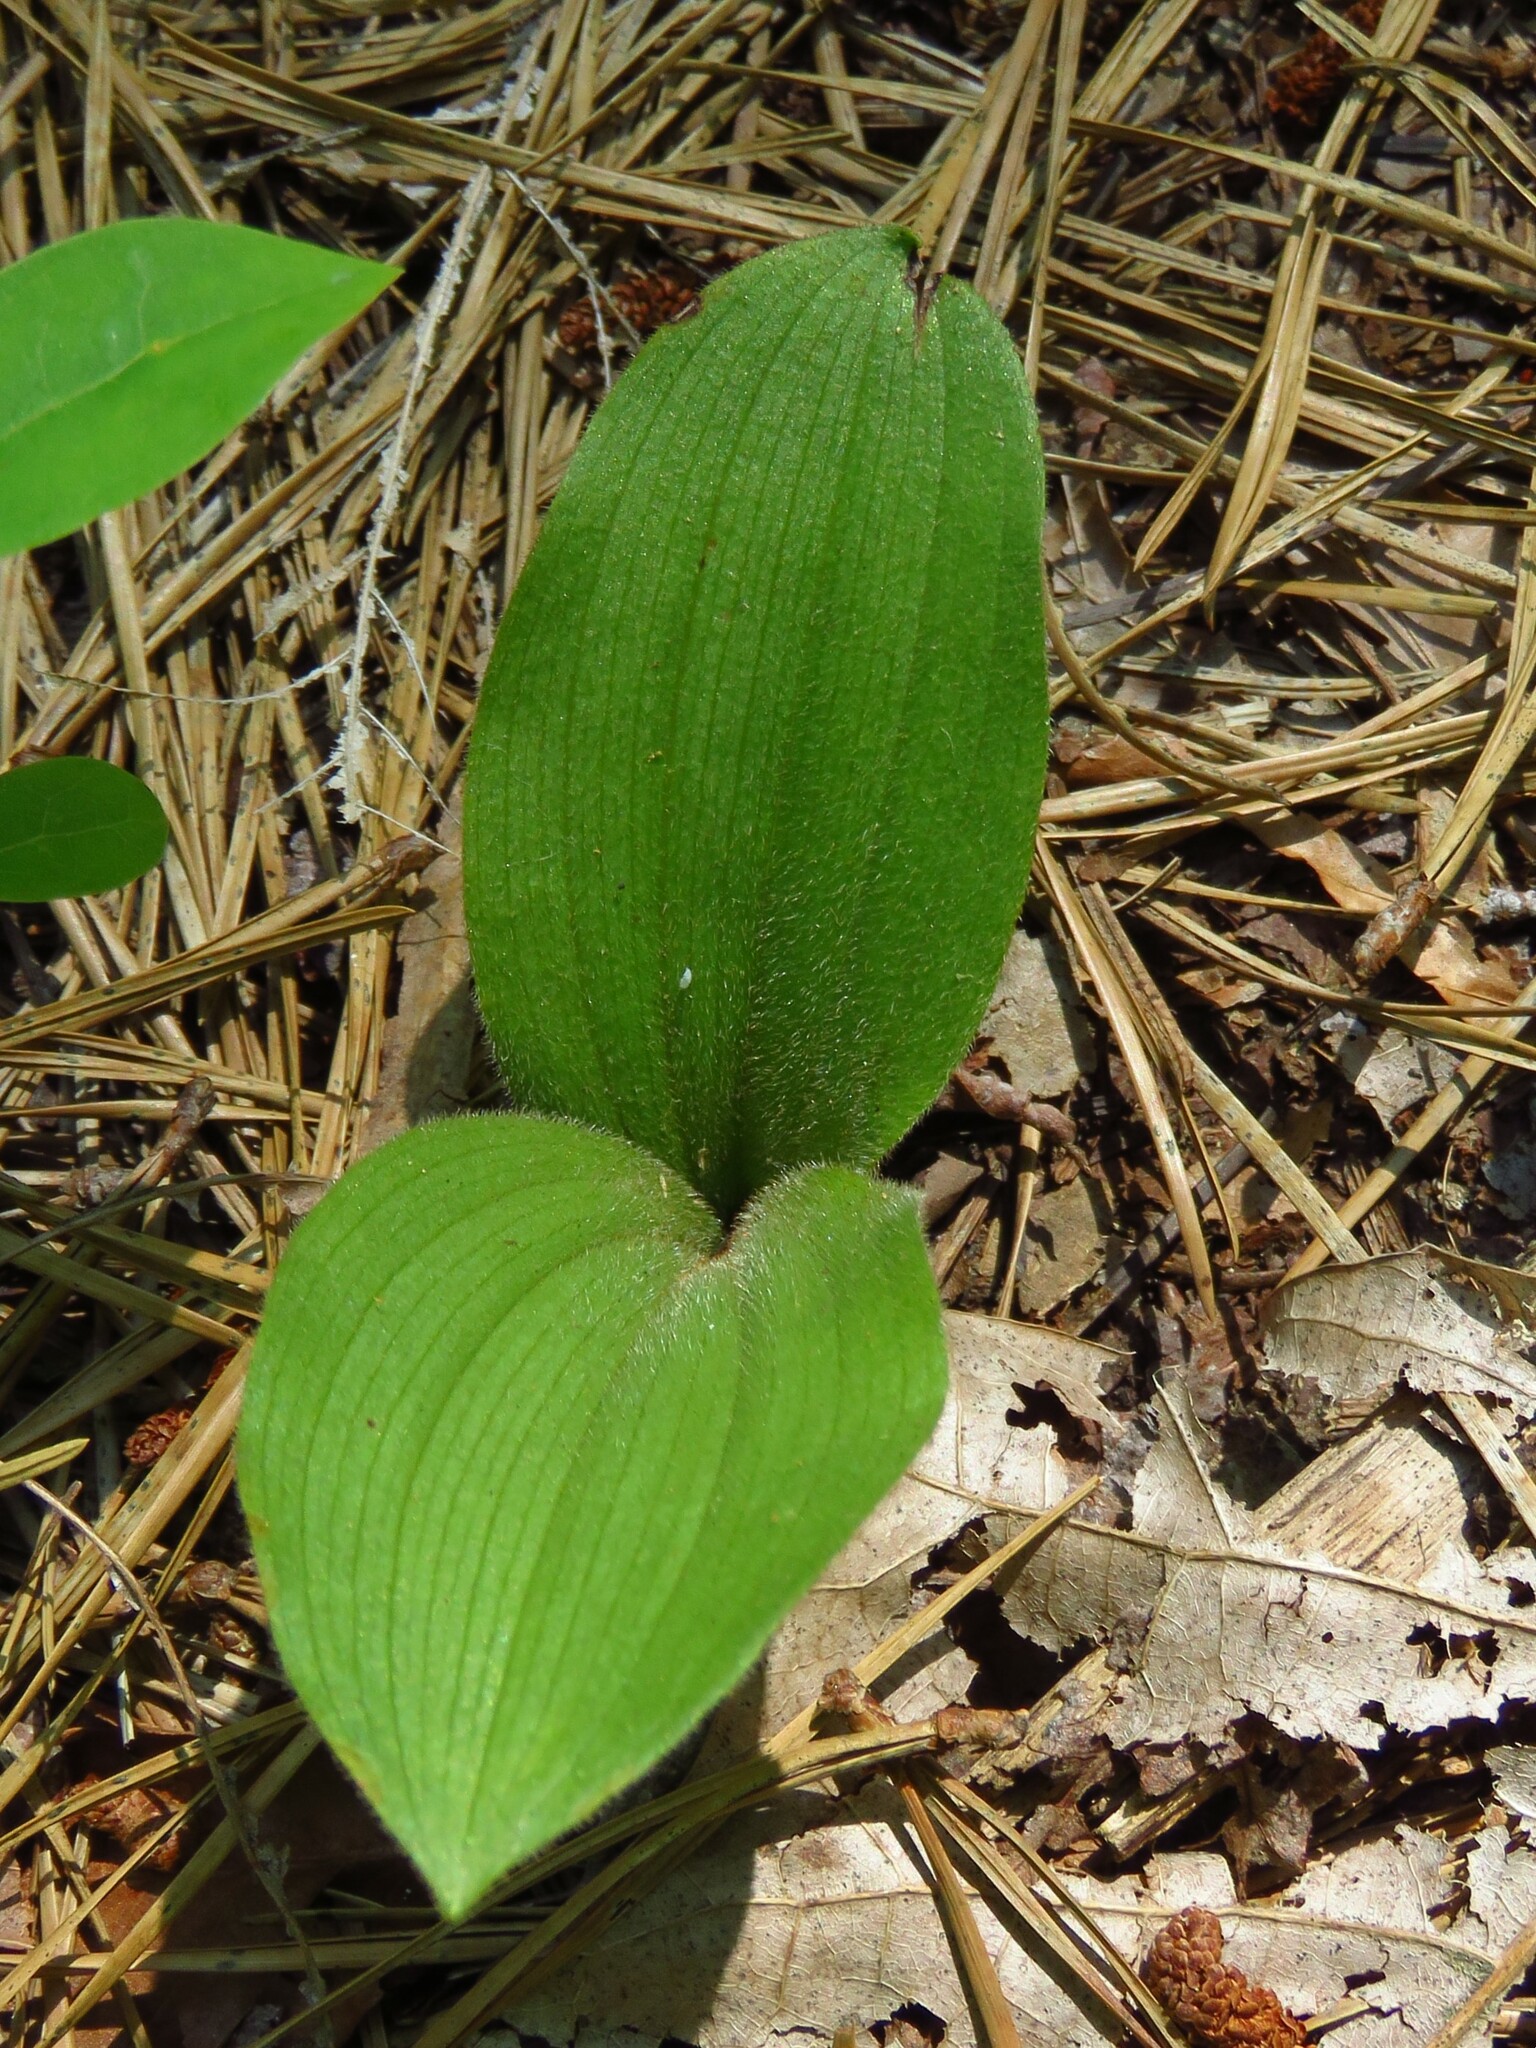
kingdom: Plantae
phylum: Tracheophyta
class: Liliopsida
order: Asparagales
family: Orchidaceae
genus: Cypripedium
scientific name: Cypripedium acaule
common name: Pink lady's-slipper
